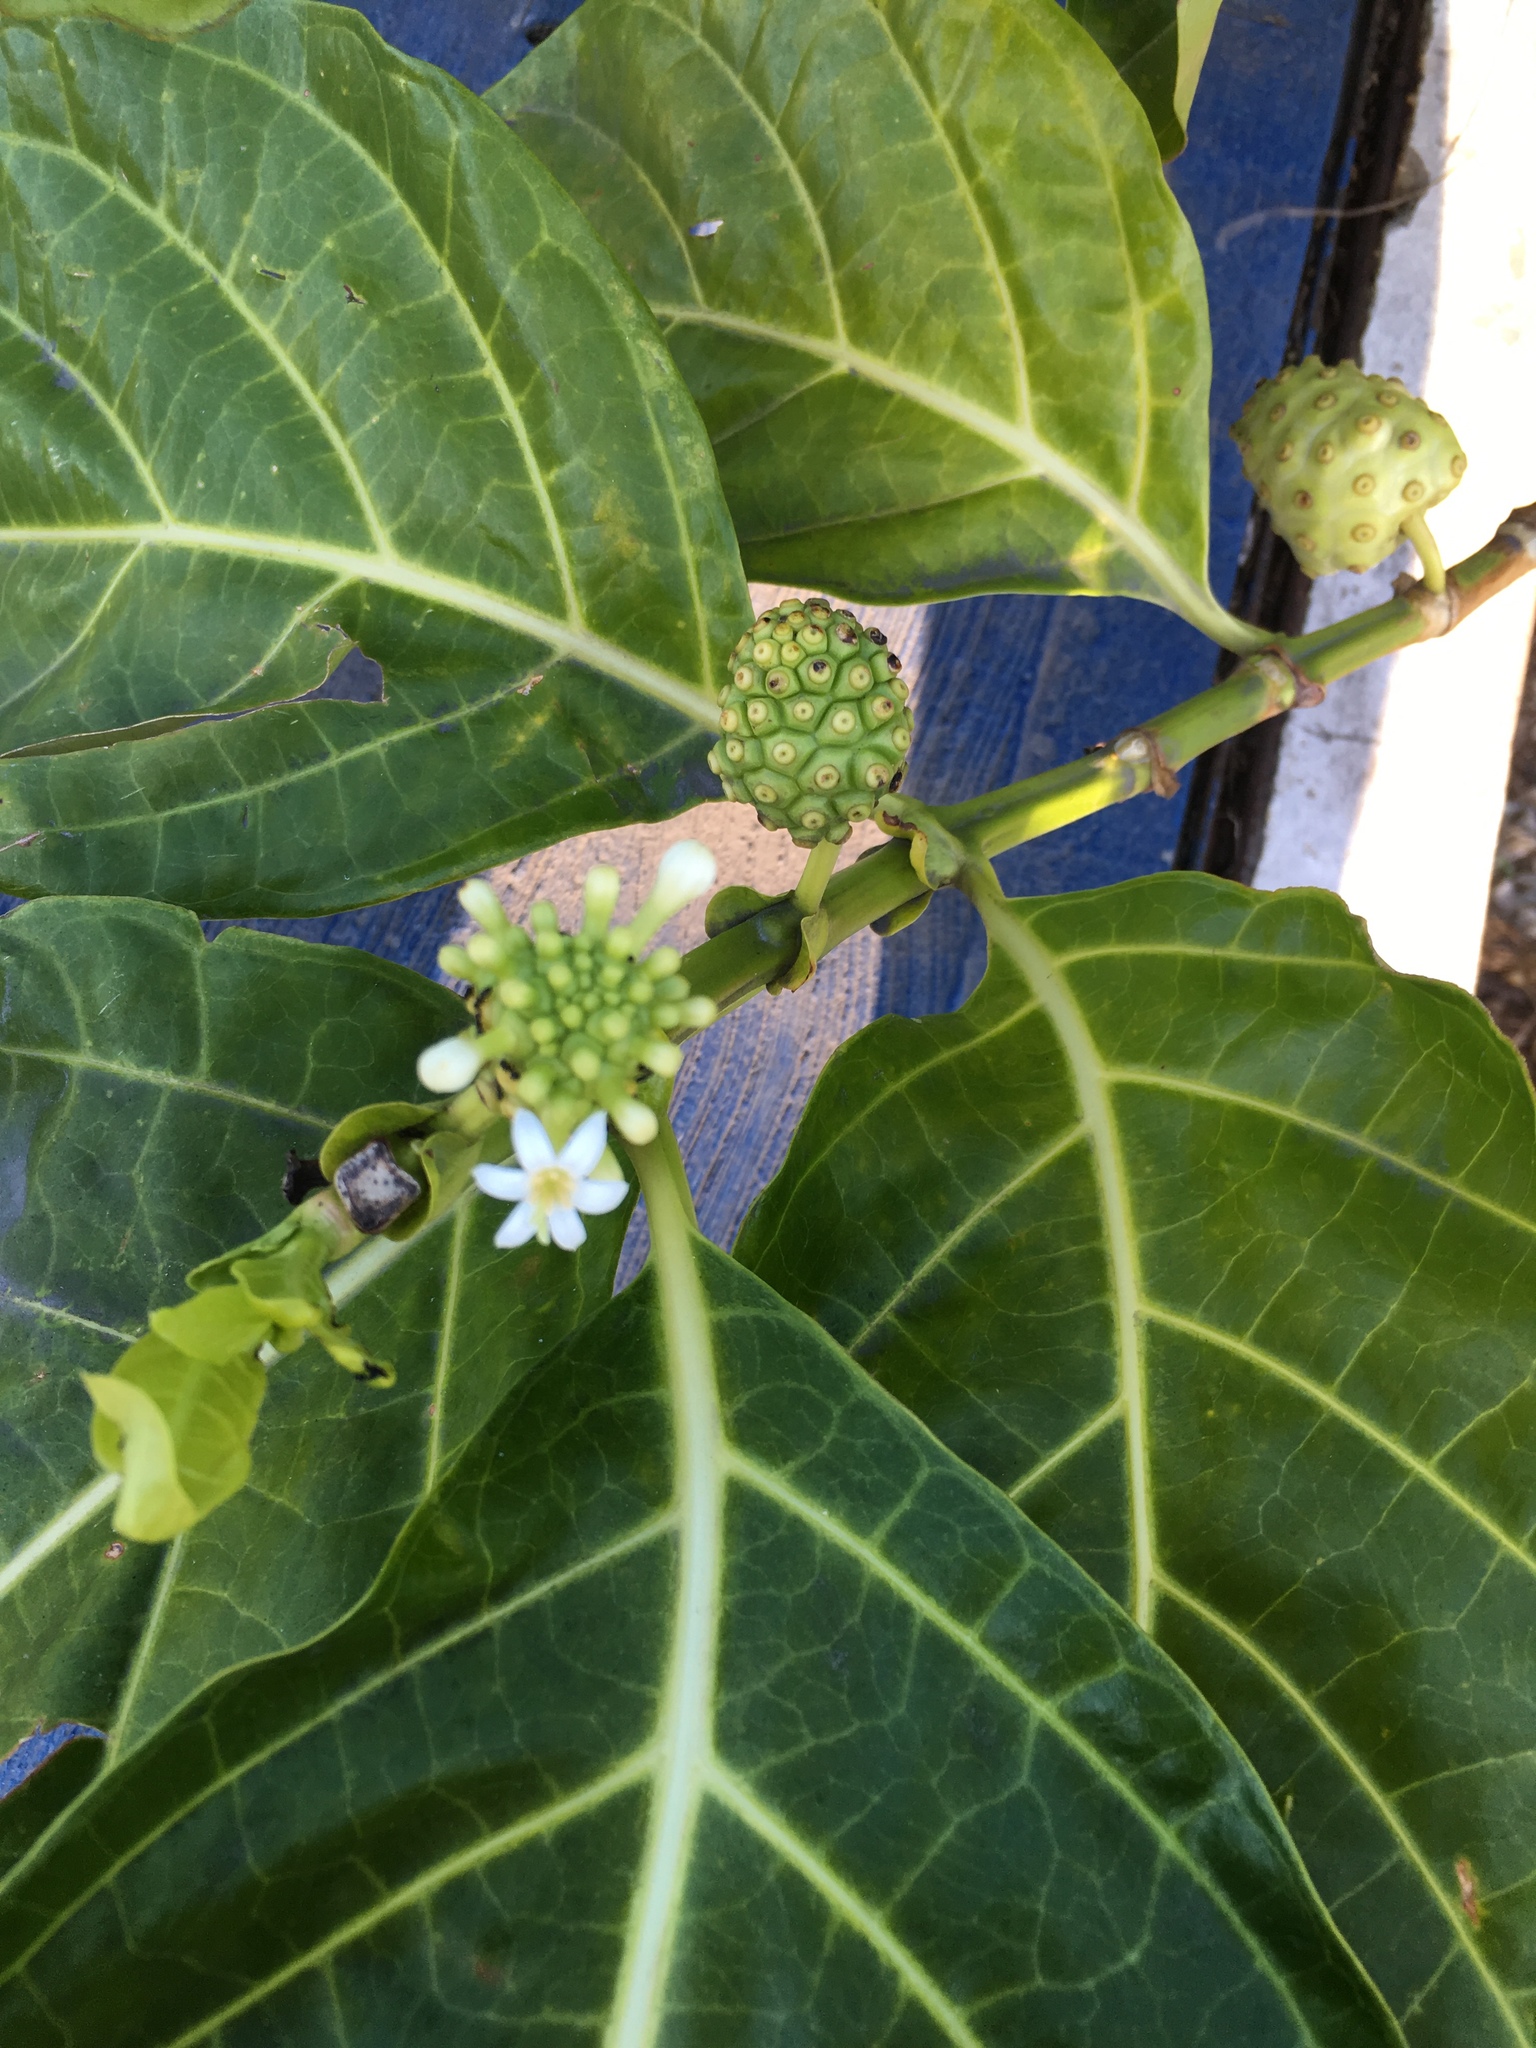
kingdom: Plantae
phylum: Tracheophyta
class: Magnoliopsida
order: Gentianales
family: Rubiaceae
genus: Morinda
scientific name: Morinda citrifolia
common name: Indian-mulberry
